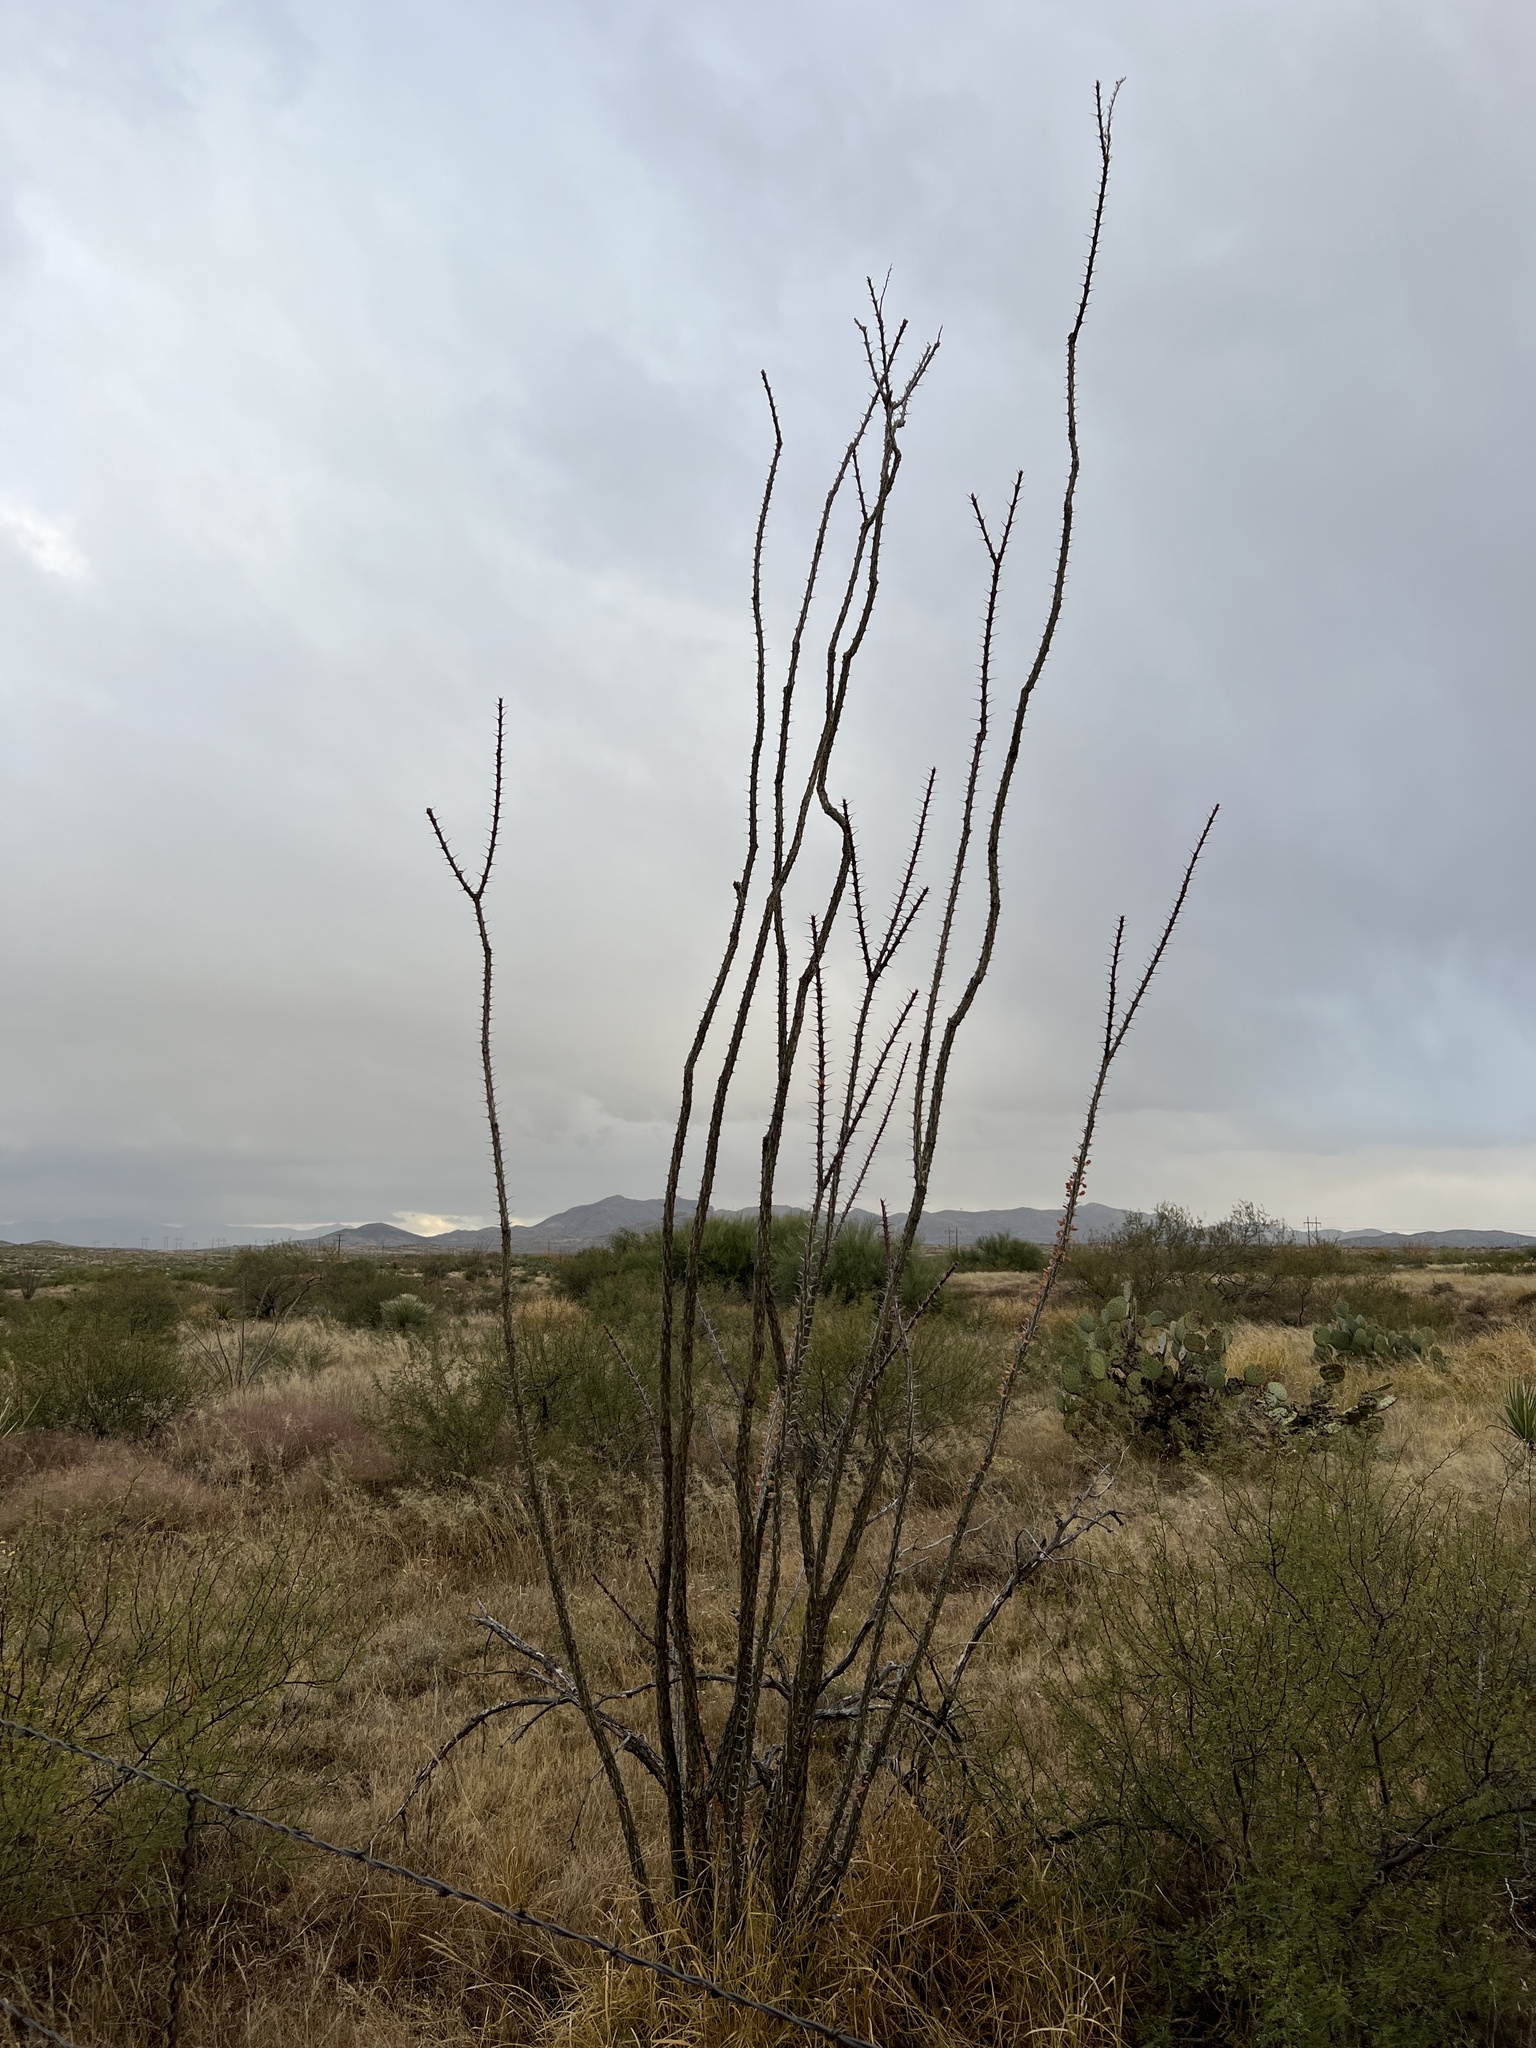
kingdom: Plantae
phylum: Tracheophyta
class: Magnoliopsida
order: Ericales
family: Fouquieriaceae
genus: Fouquieria
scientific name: Fouquieria splendens
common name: Vine-cactus
